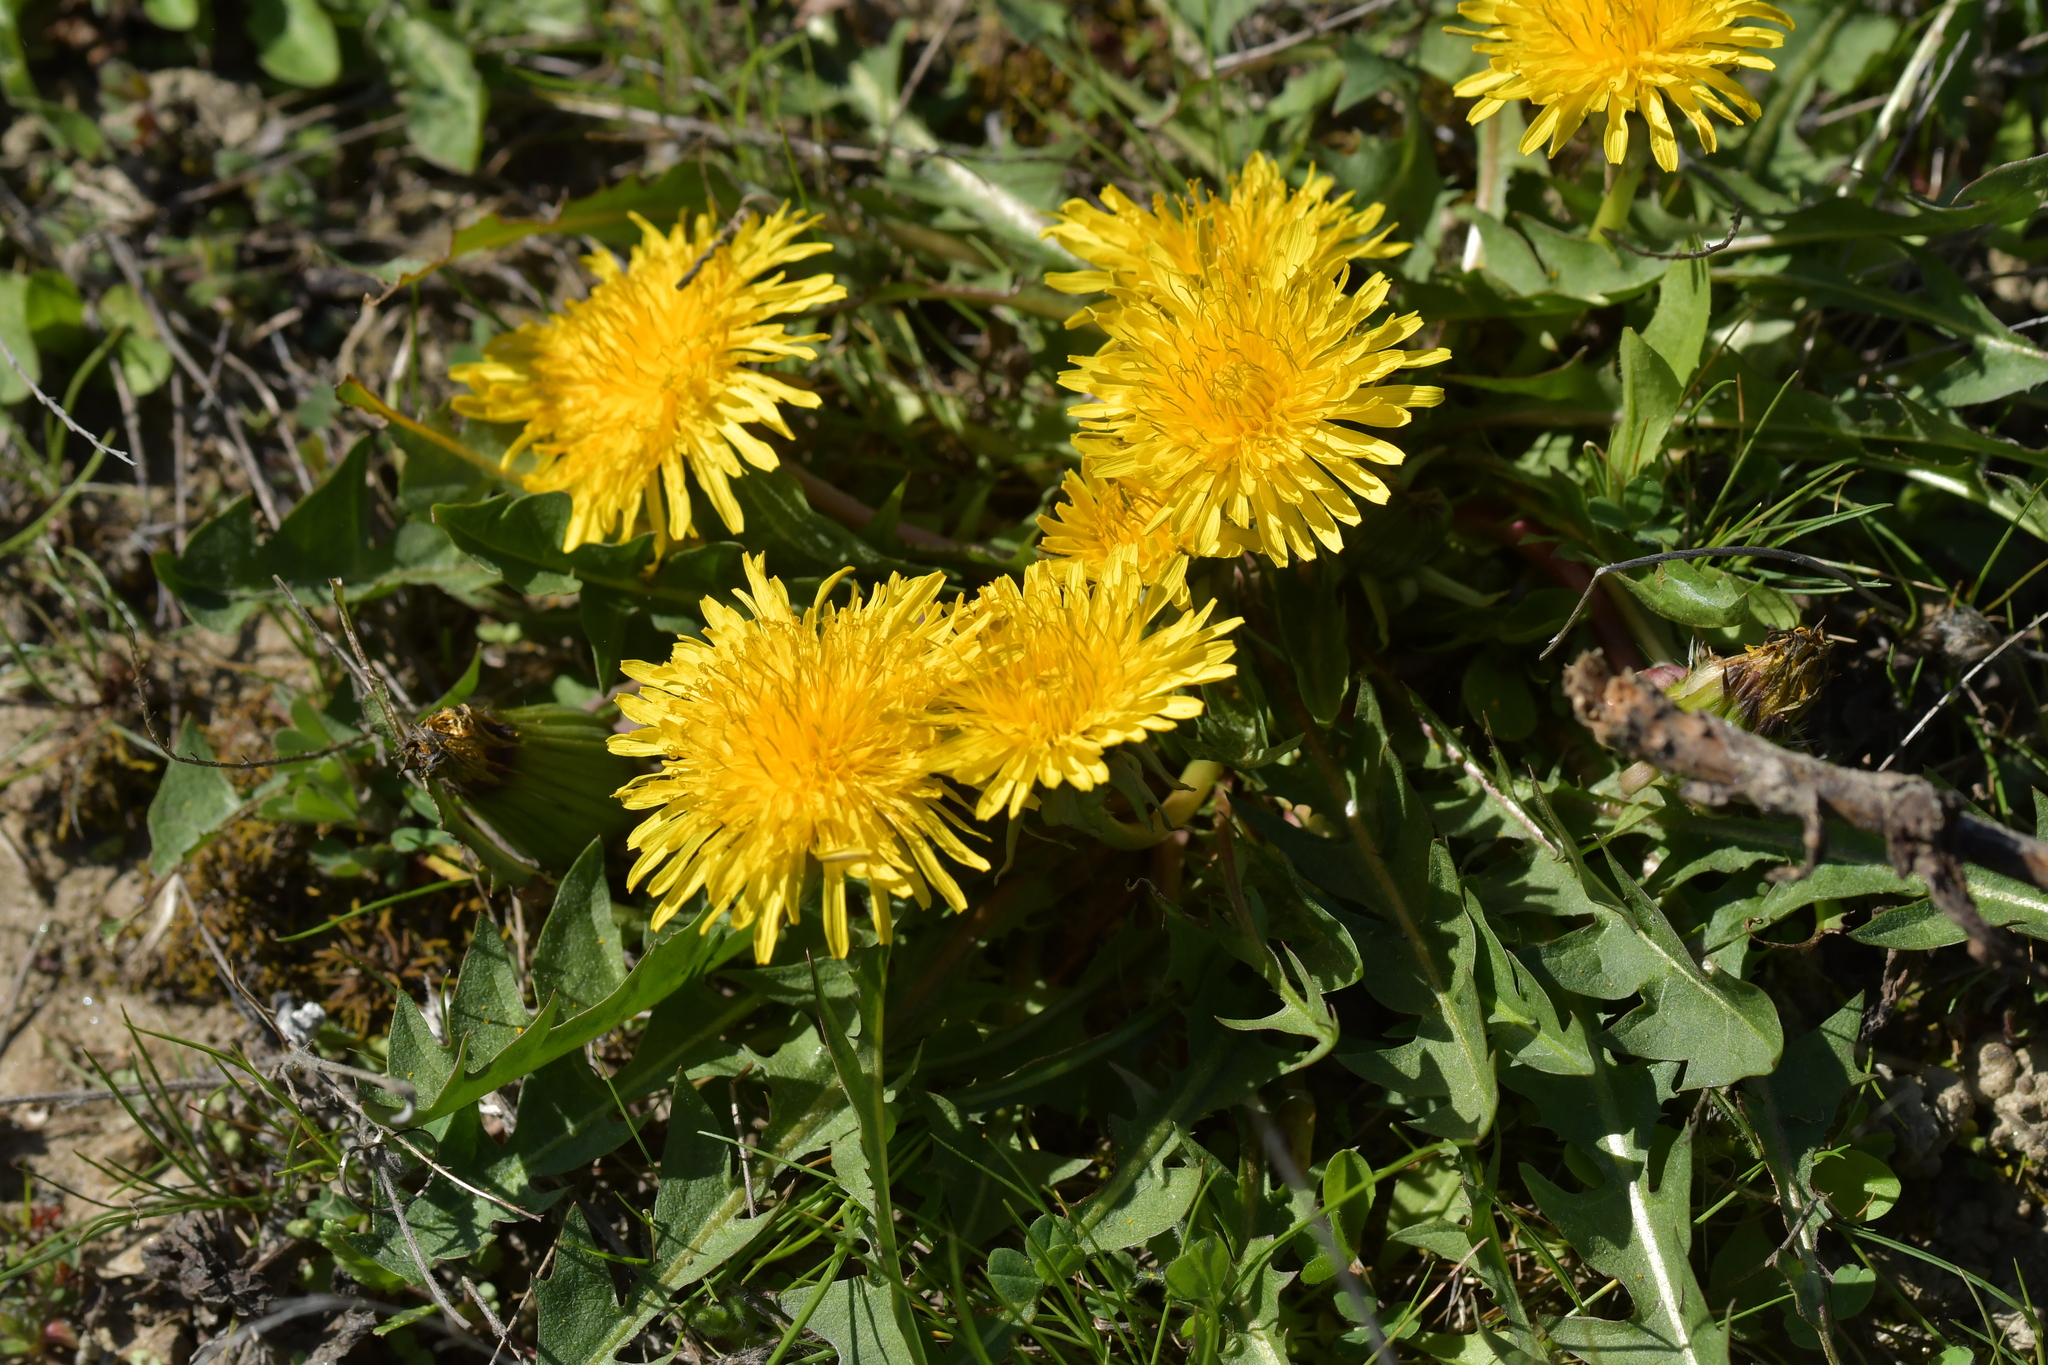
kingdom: Plantae
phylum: Tracheophyta
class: Magnoliopsida
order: Asterales
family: Asteraceae
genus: Taraxacum
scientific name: Taraxacum officinale
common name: Common dandelion
